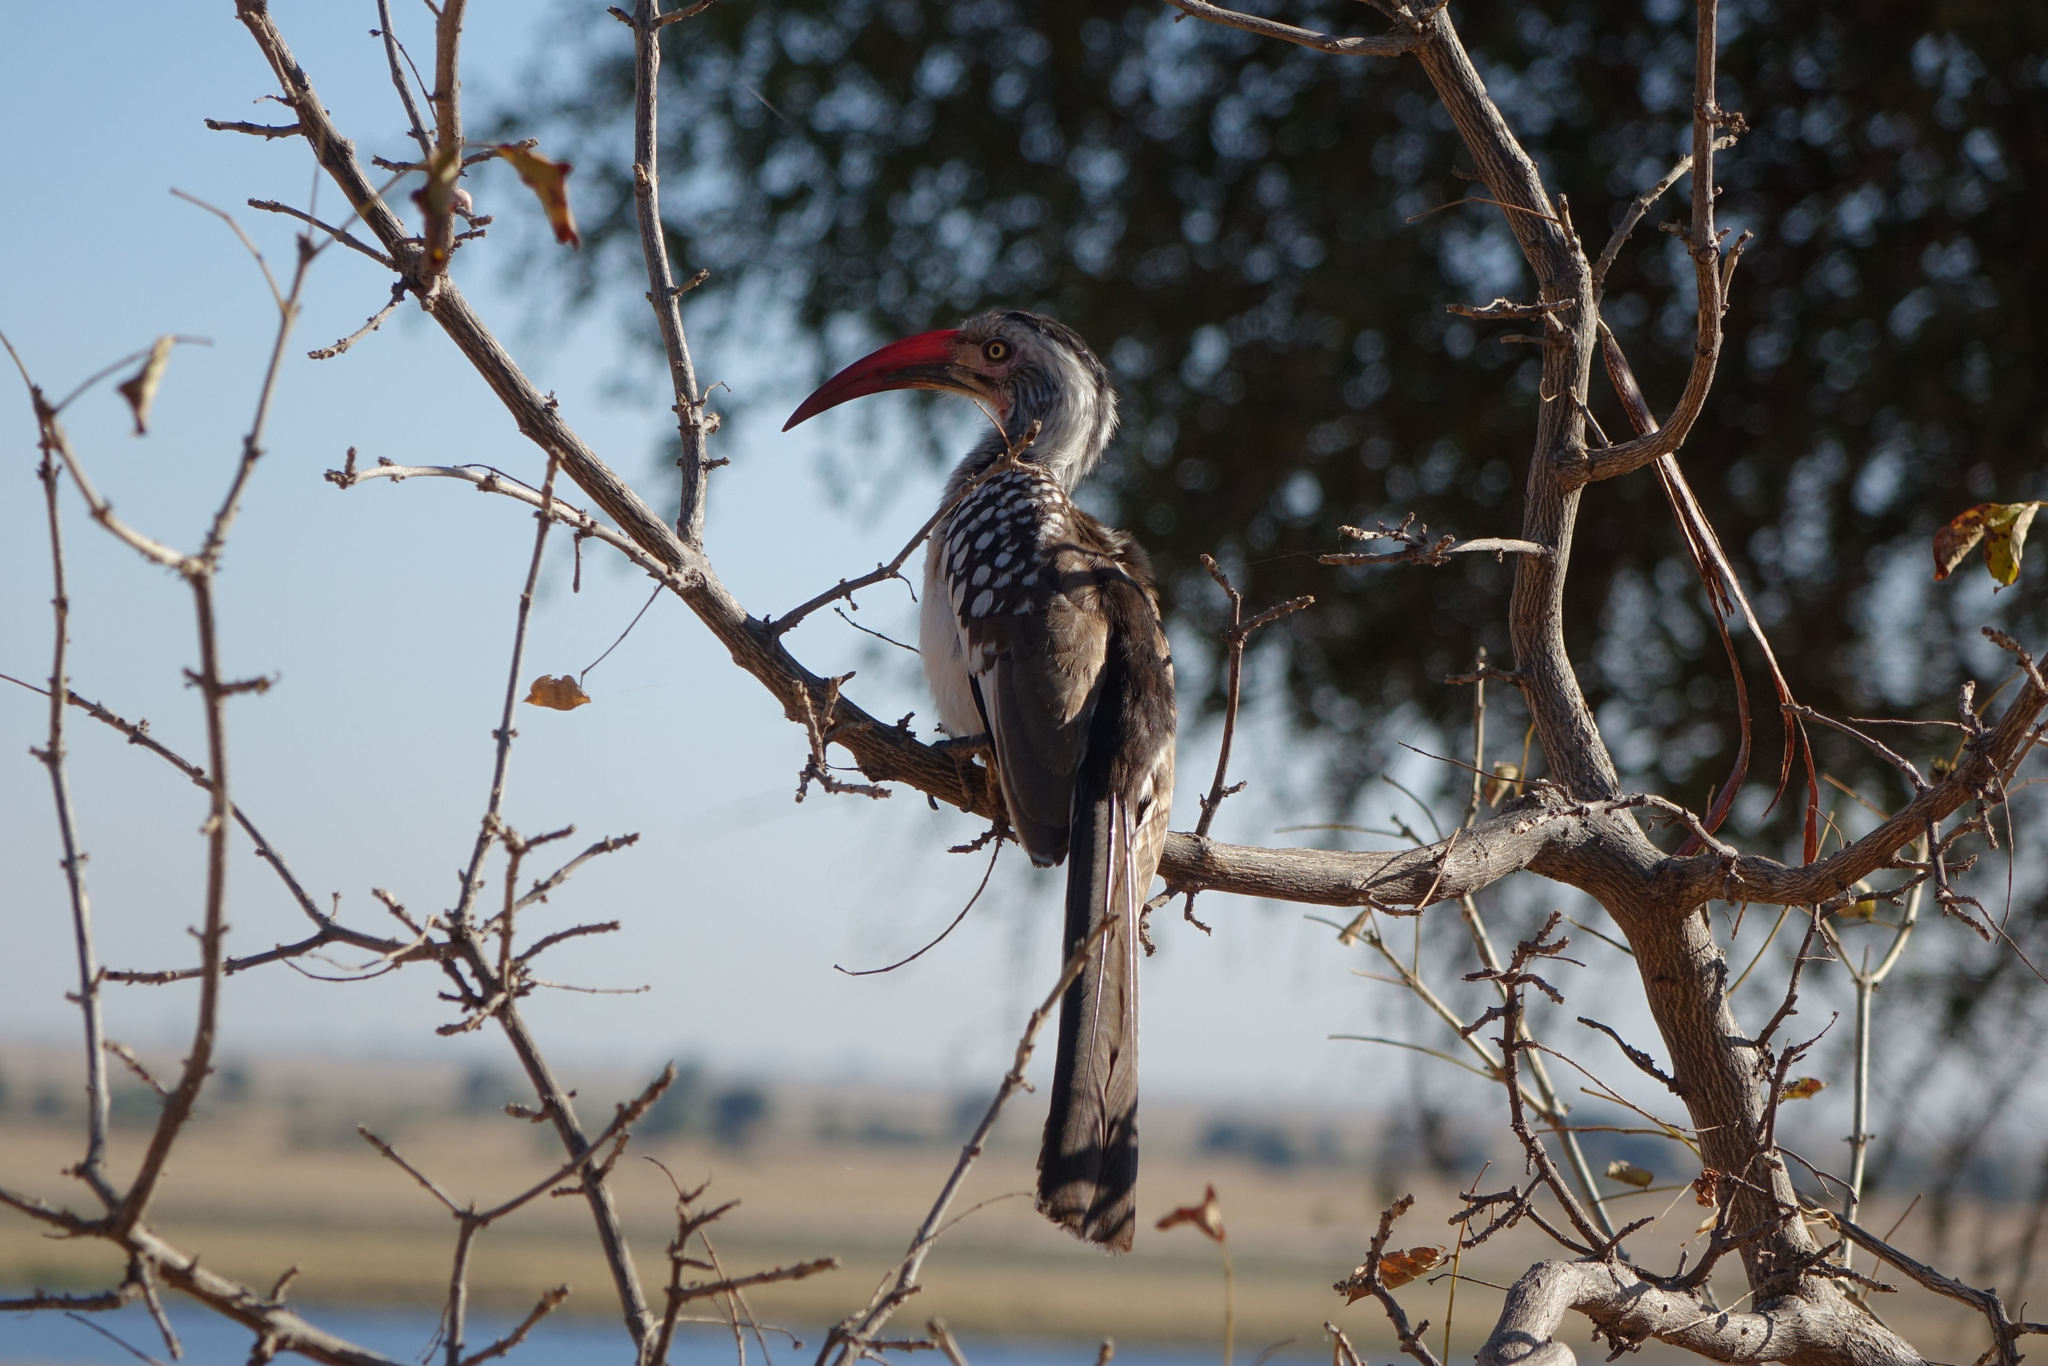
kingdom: Animalia
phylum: Chordata
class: Aves
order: Bucerotiformes
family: Bucerotidae
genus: Tockus
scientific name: Tockus rufirostris
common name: Southern red-billed hornbill
